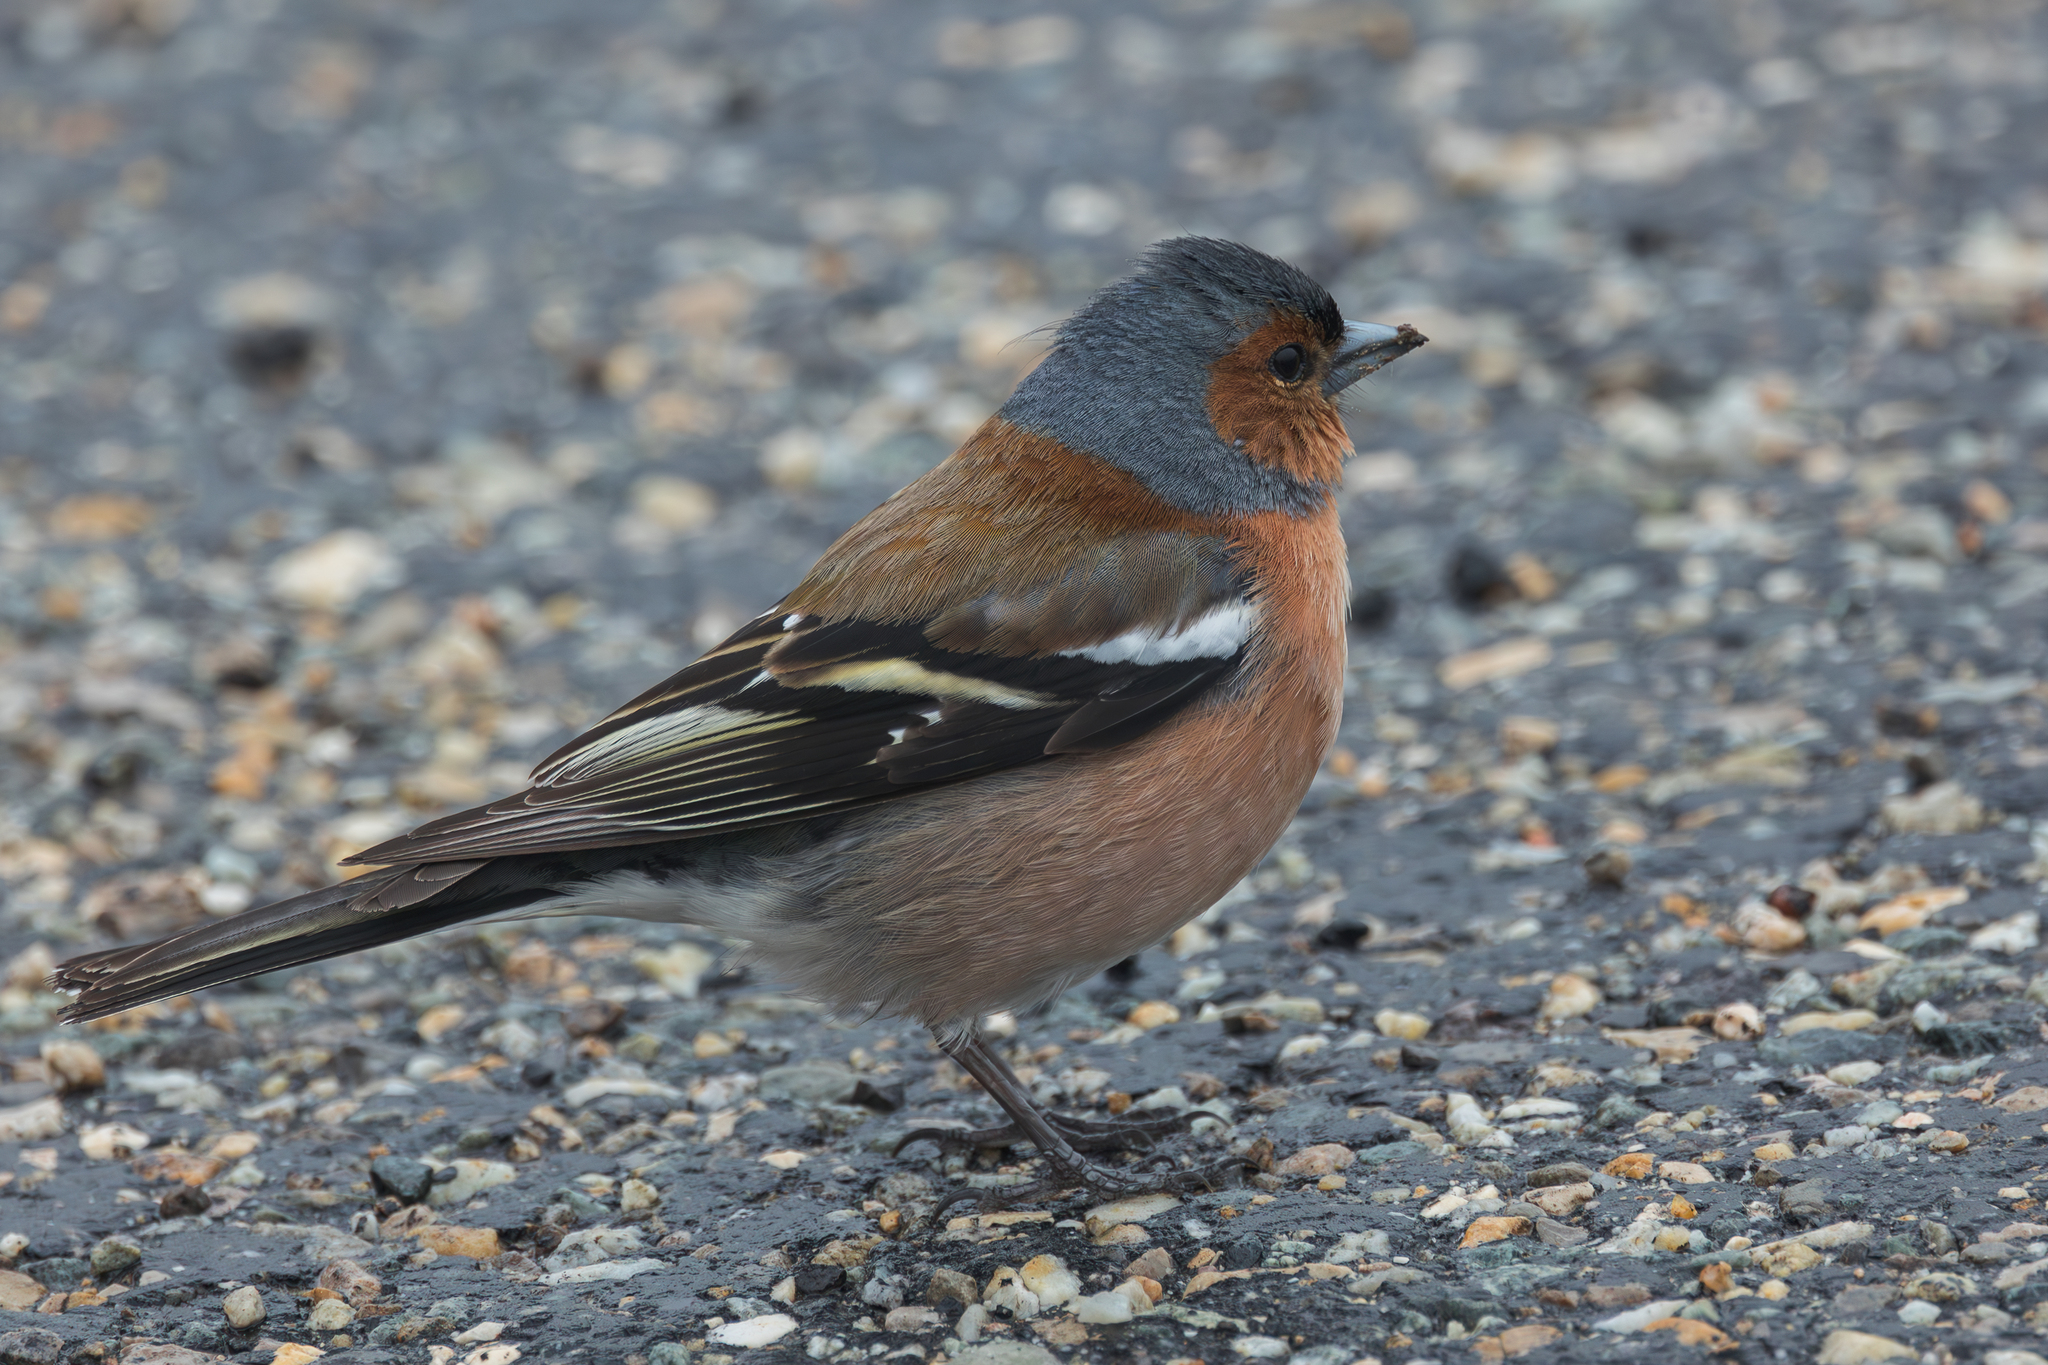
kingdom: Animalia
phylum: Chordata
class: Aves
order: Passeriformes
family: Fringillidae
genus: Fringilla
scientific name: Fringilla coelebs
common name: Common chaffinch
